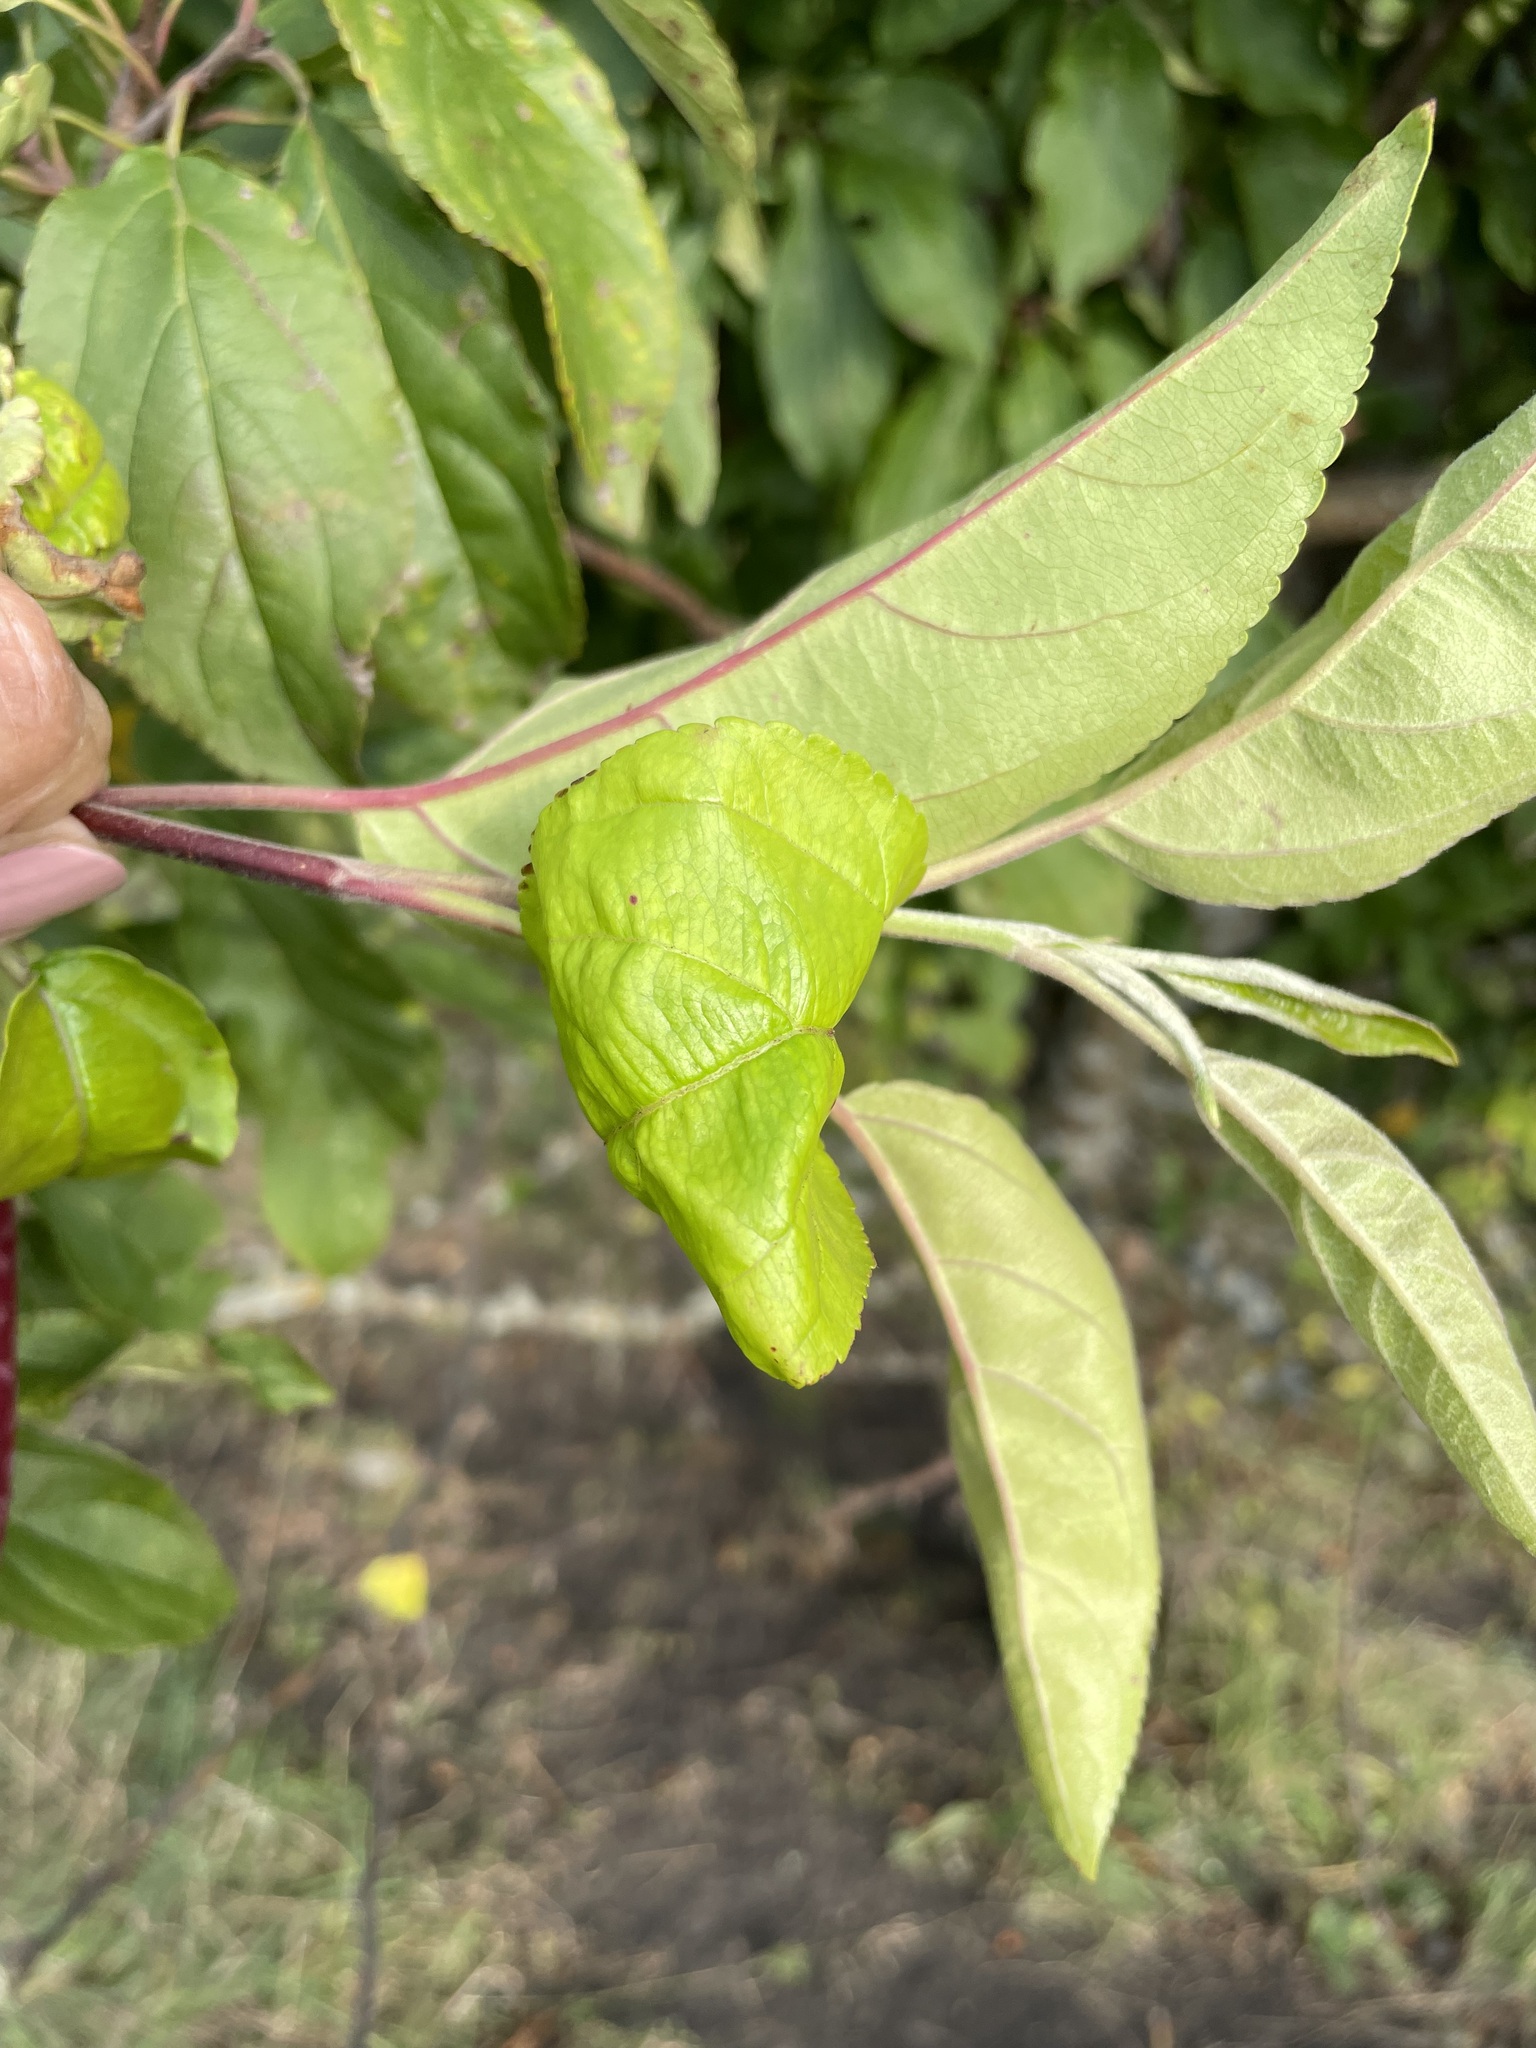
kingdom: Plantae
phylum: Tracheophyta
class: Magnoliopsida
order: Rosales
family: Rosaceae
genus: Malus
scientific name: Malus domestica
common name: Apple
